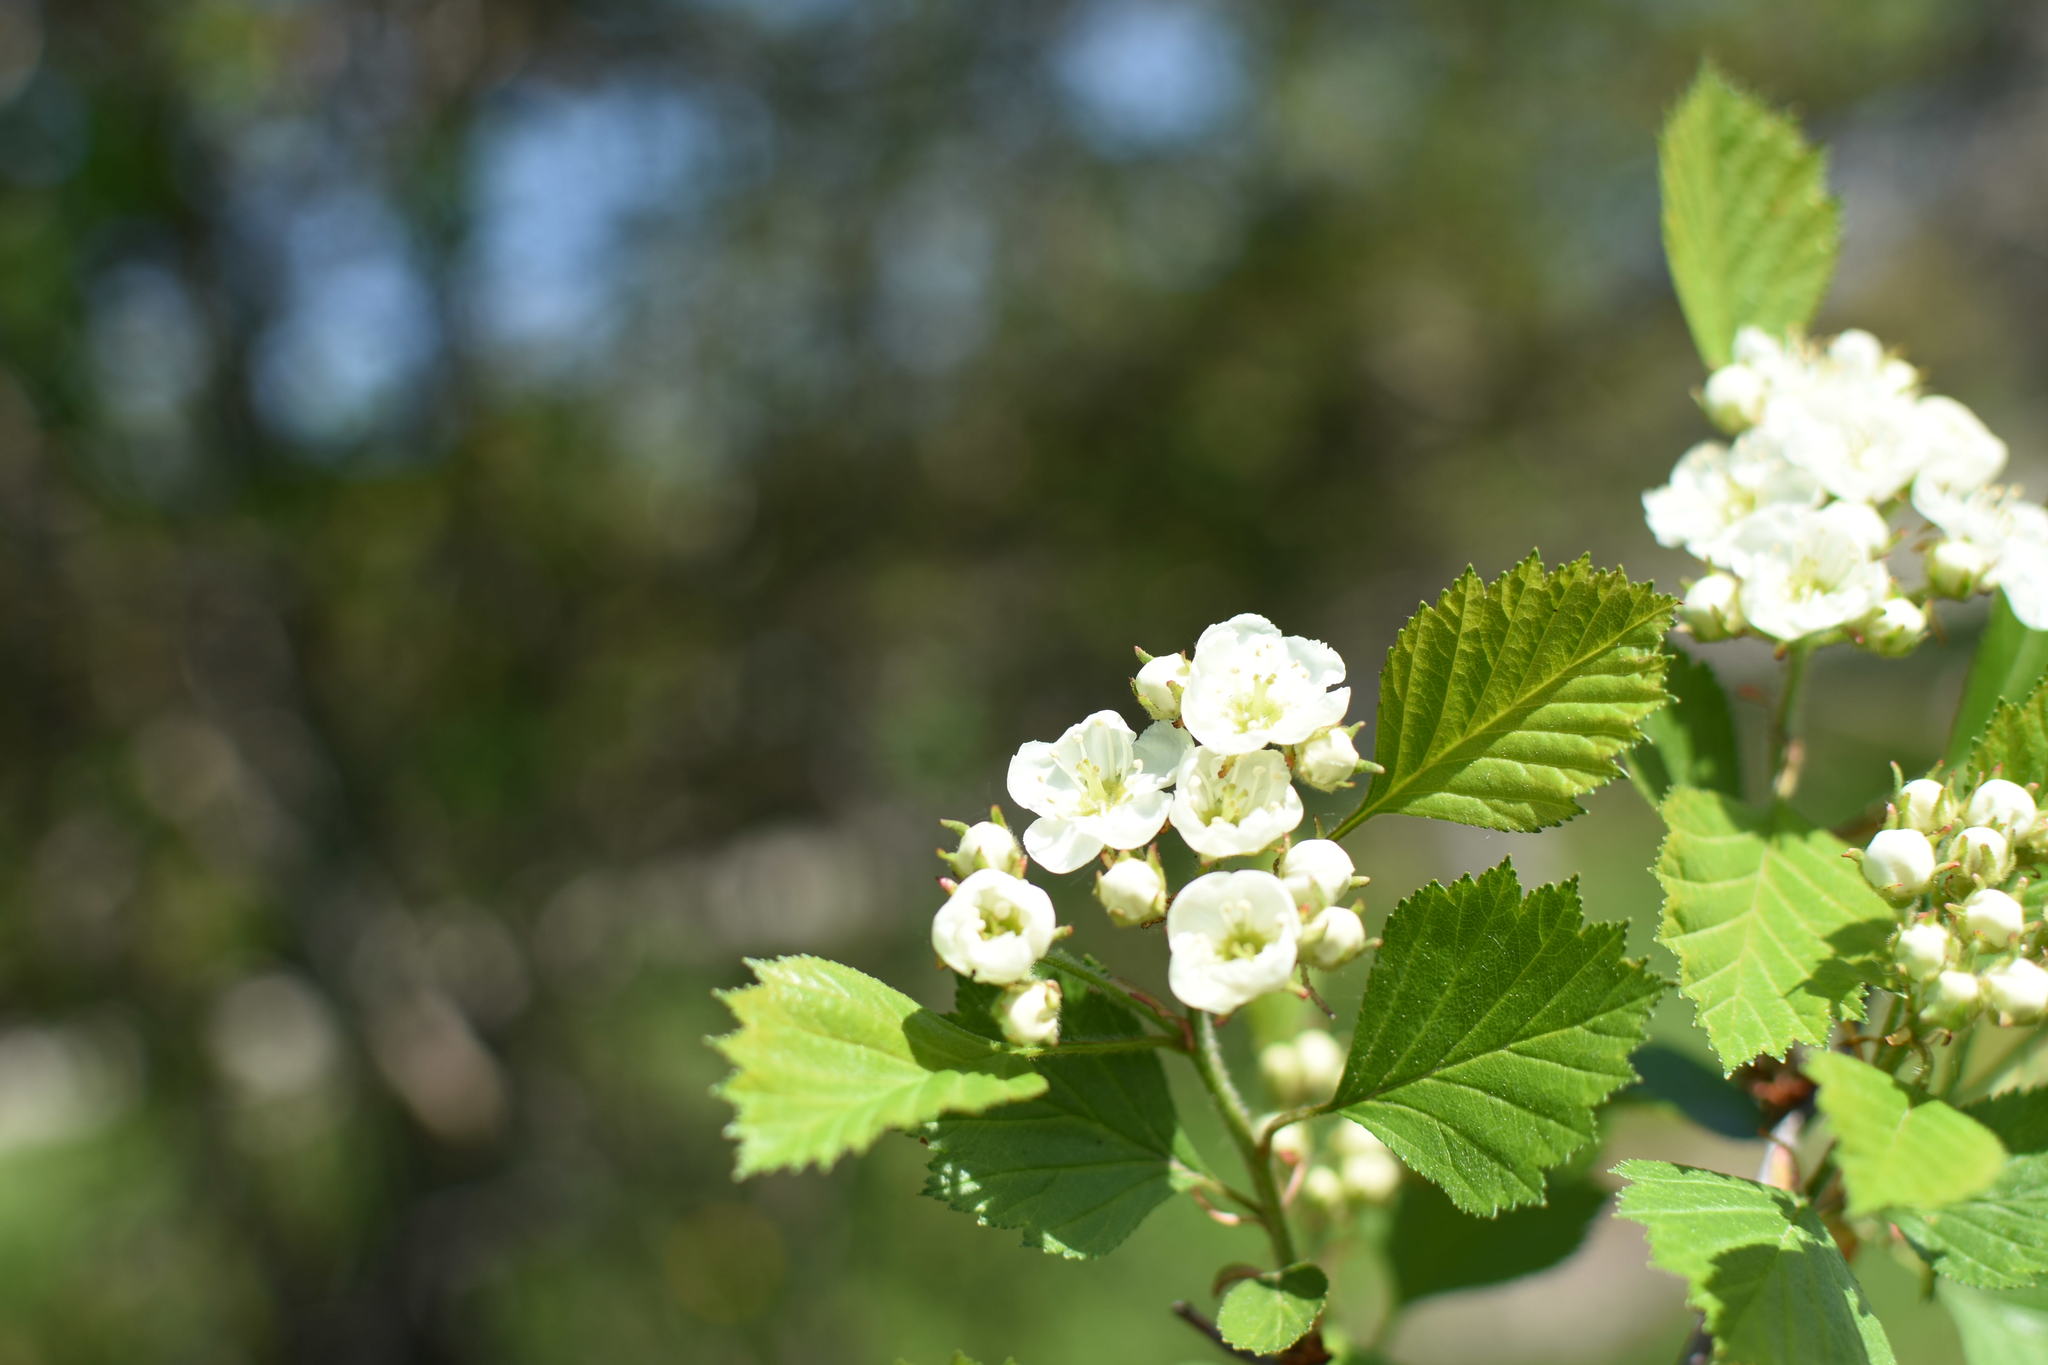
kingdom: Plantae
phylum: Tracheophyta
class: Magnoliopsida
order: Rosales
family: Rosaceae
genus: Crataegus
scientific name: Crataegus chrysocarpa
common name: Fire-berry hawthorn
